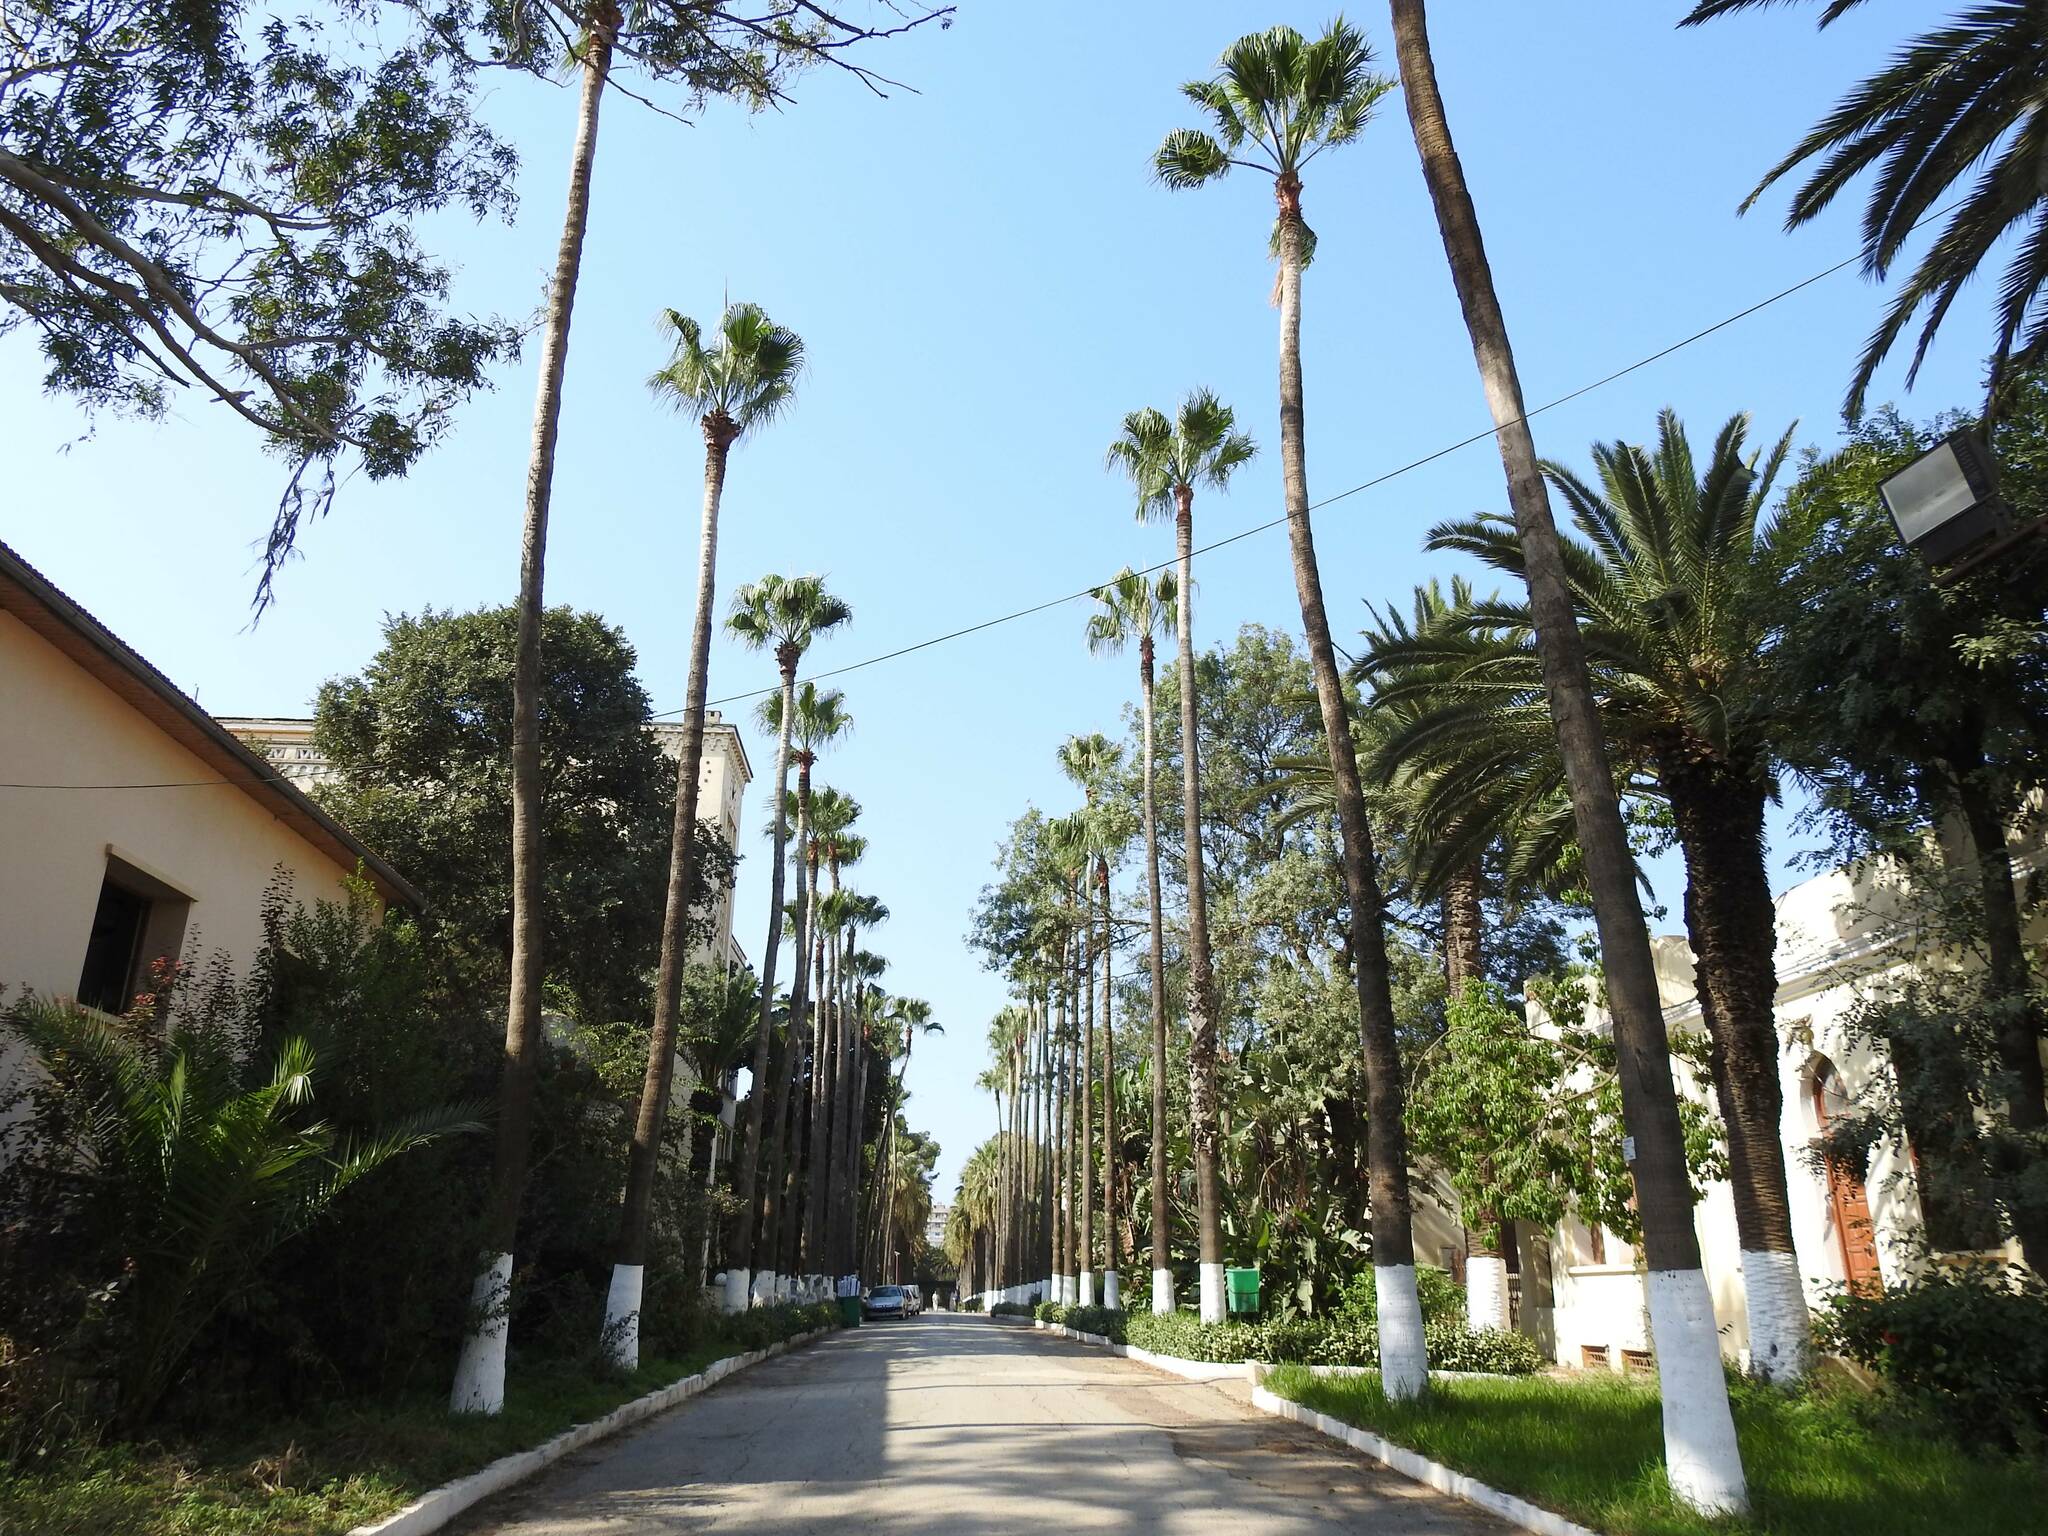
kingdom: Plantae
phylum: Tracheophyta
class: Liliopsida
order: Arecales
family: Arecaceae
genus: Washingtonia
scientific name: Washingtonia robusta
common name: Mexican fan palm
